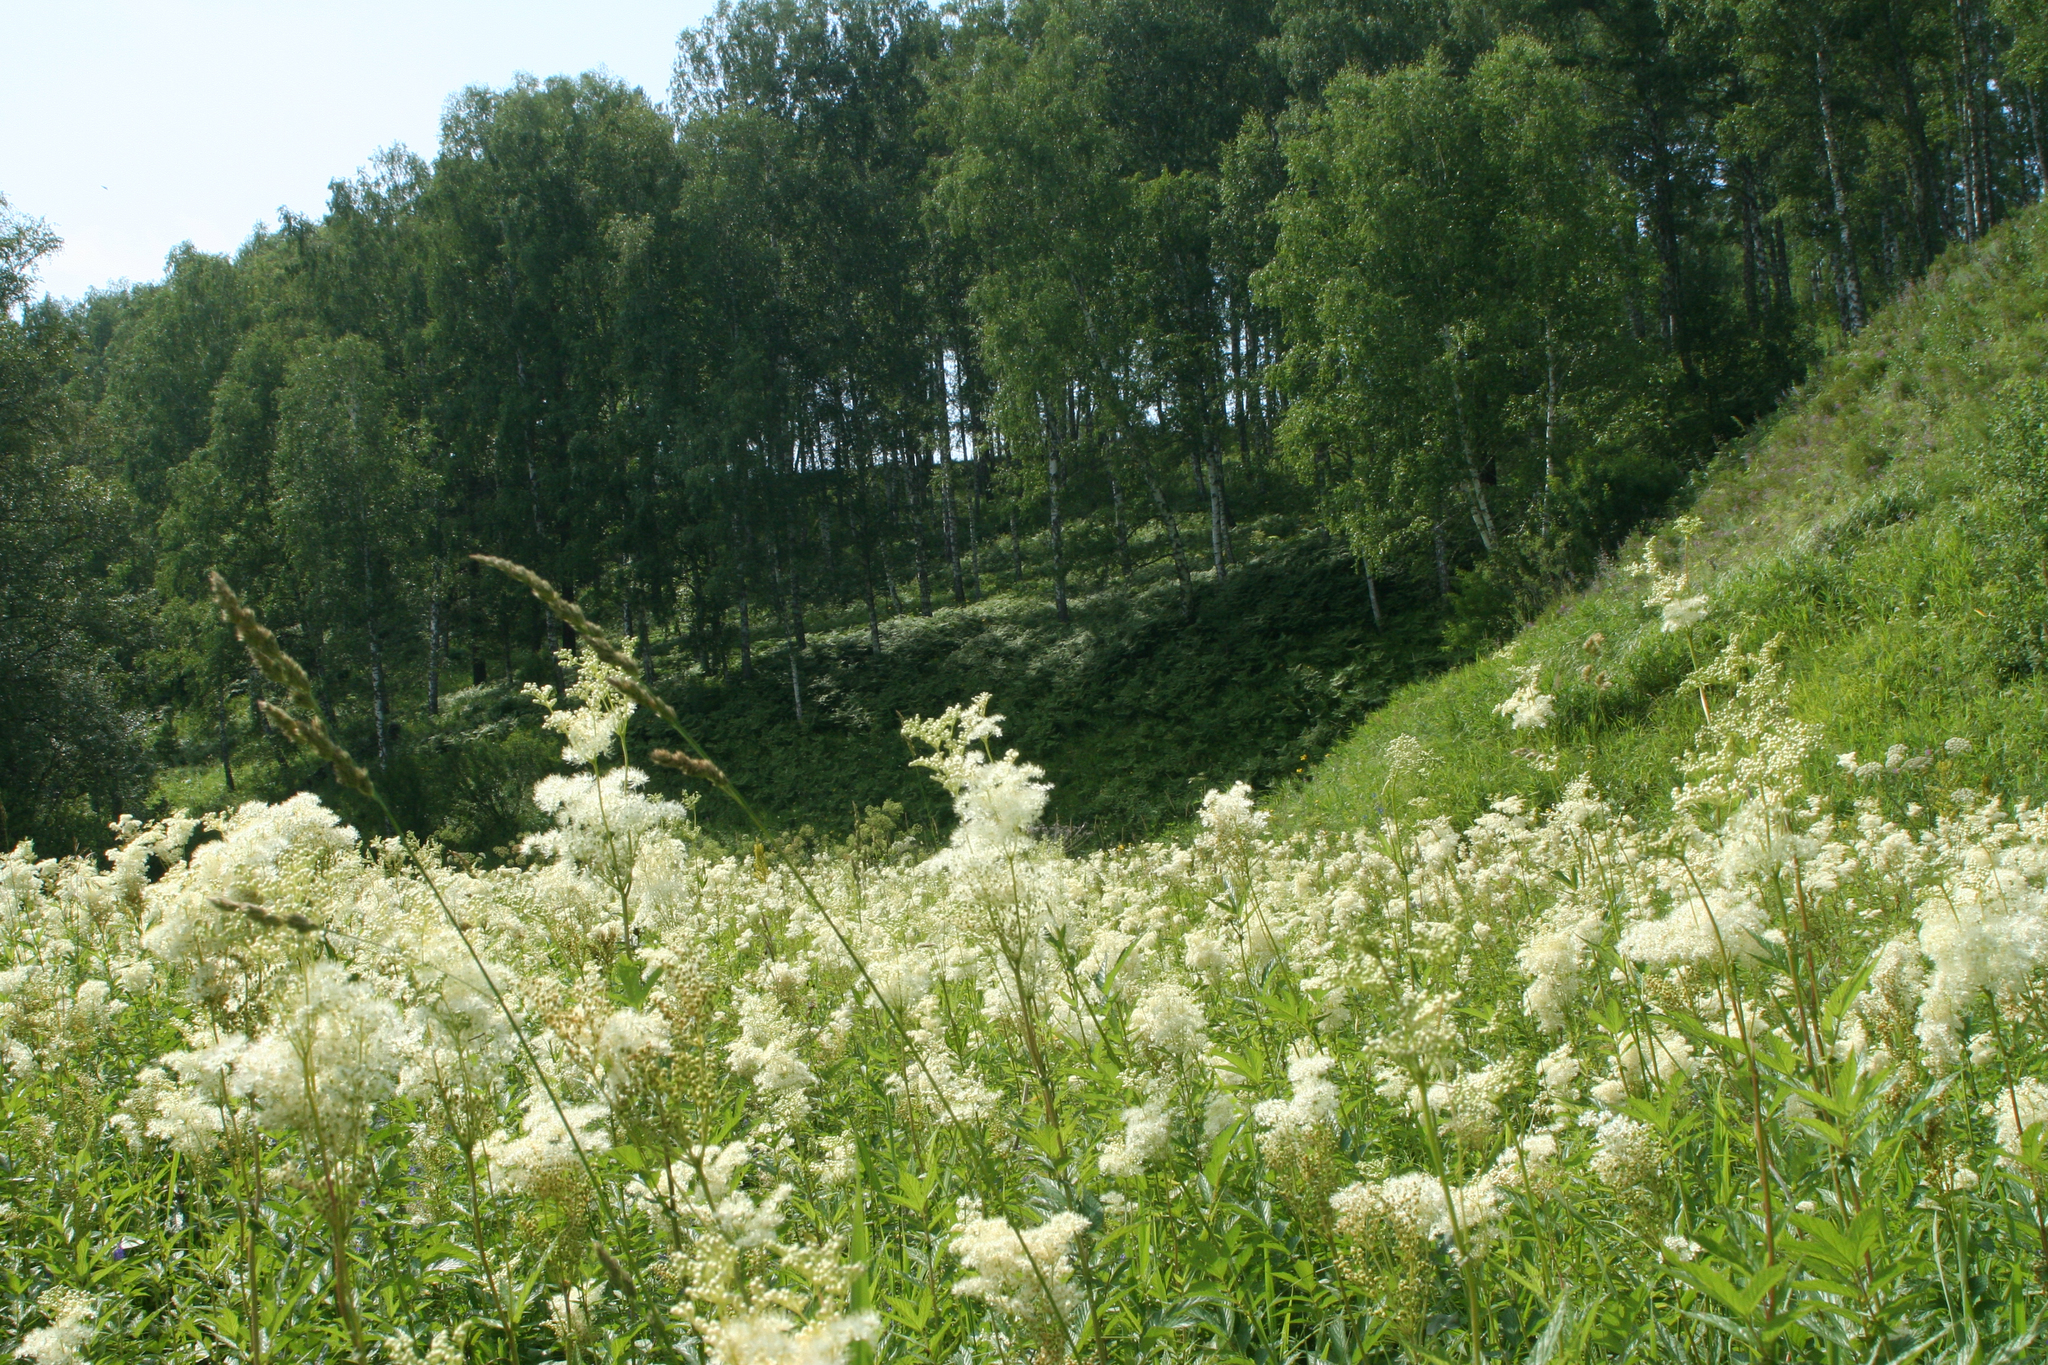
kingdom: Plantae
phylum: Tracheophyta
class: Magnoliopsida
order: Rosales
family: Rosaceae
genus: Filipendula
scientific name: Filipendula ulmaria
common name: Meadowsweet
